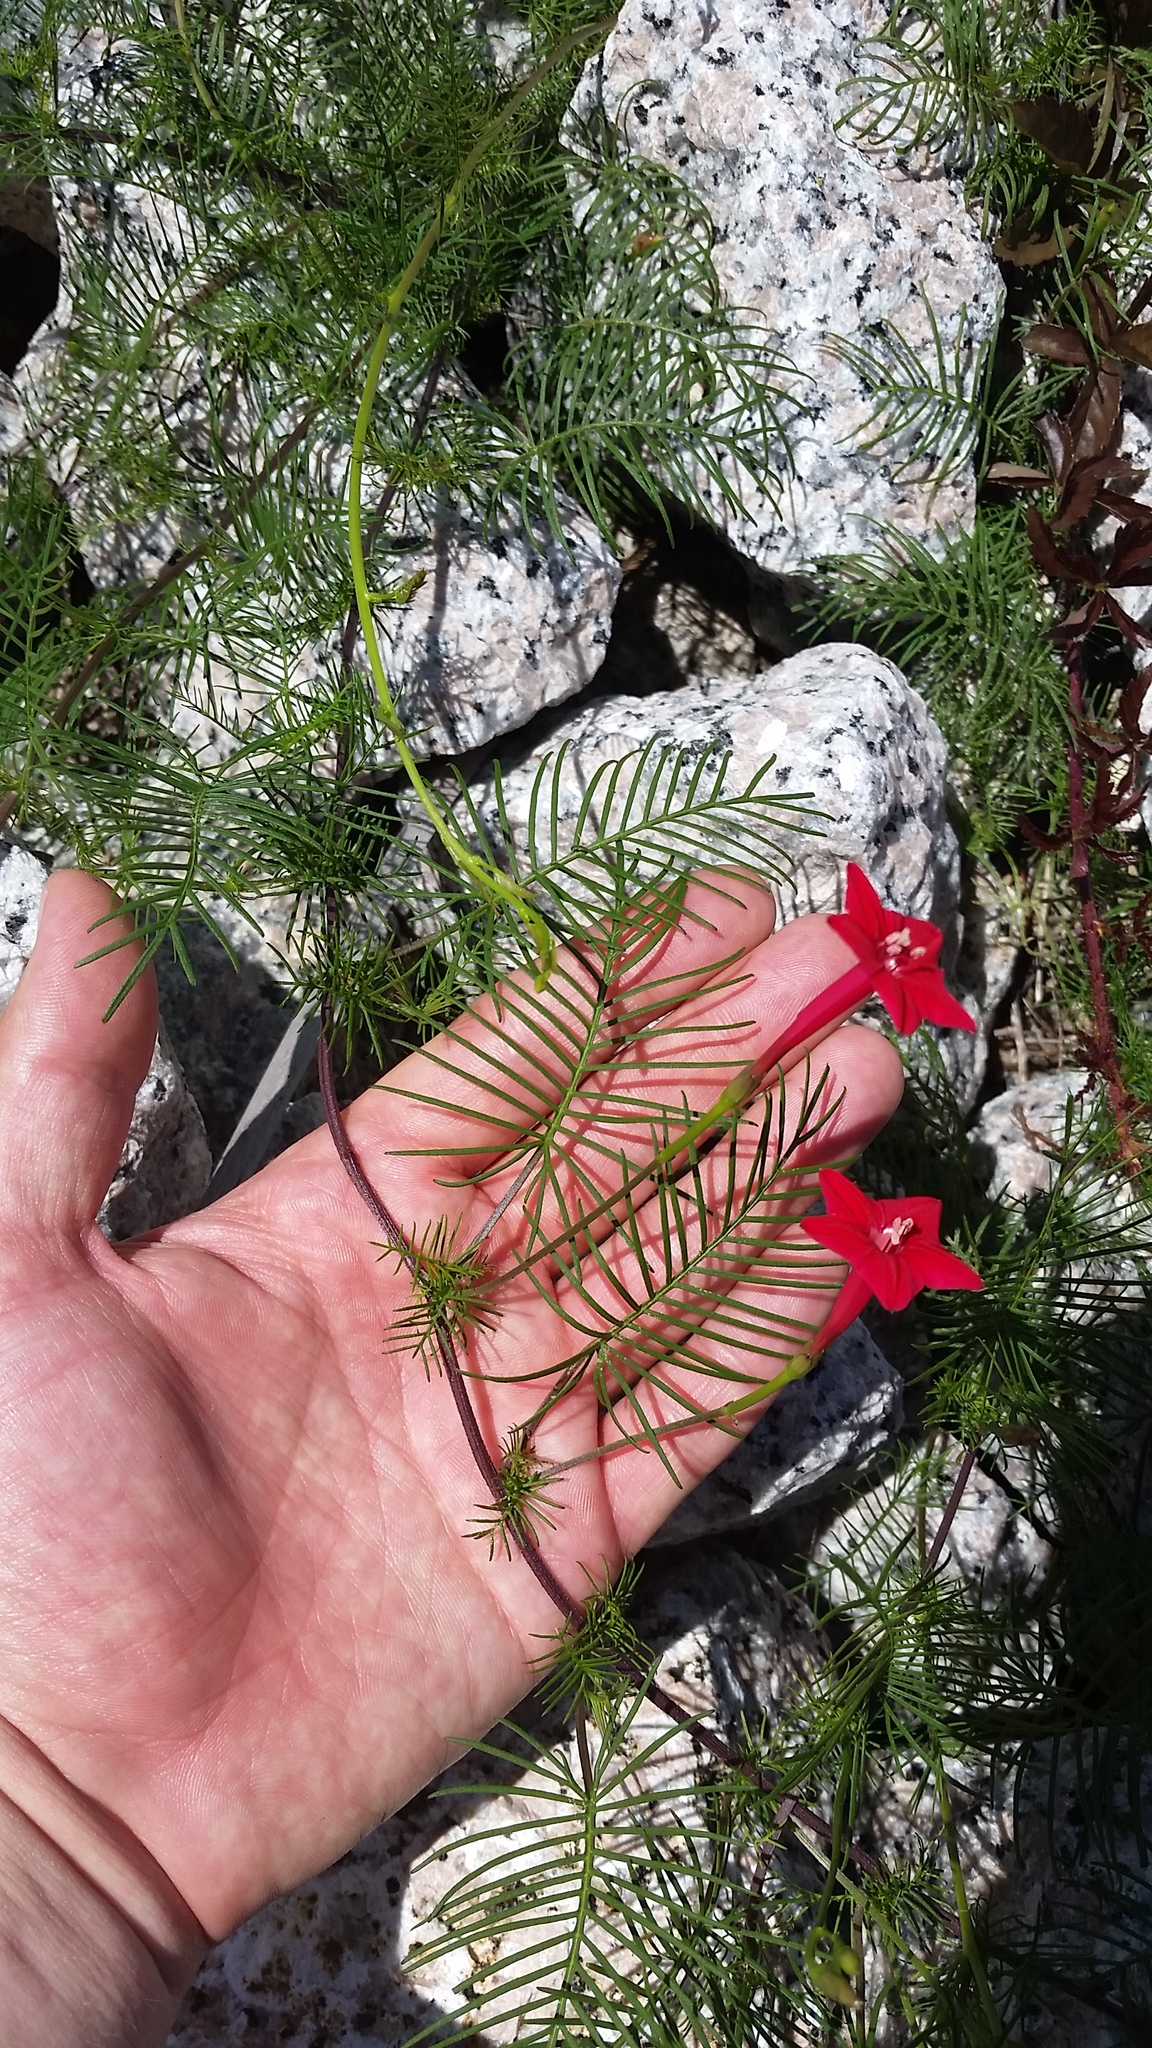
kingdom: Plantae
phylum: Tracheophyta
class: Magnoliopsida
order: Solanales
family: Convolvulaceae
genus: Ipomoea
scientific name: Ipomoea quamoclit
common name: Cypress vine
